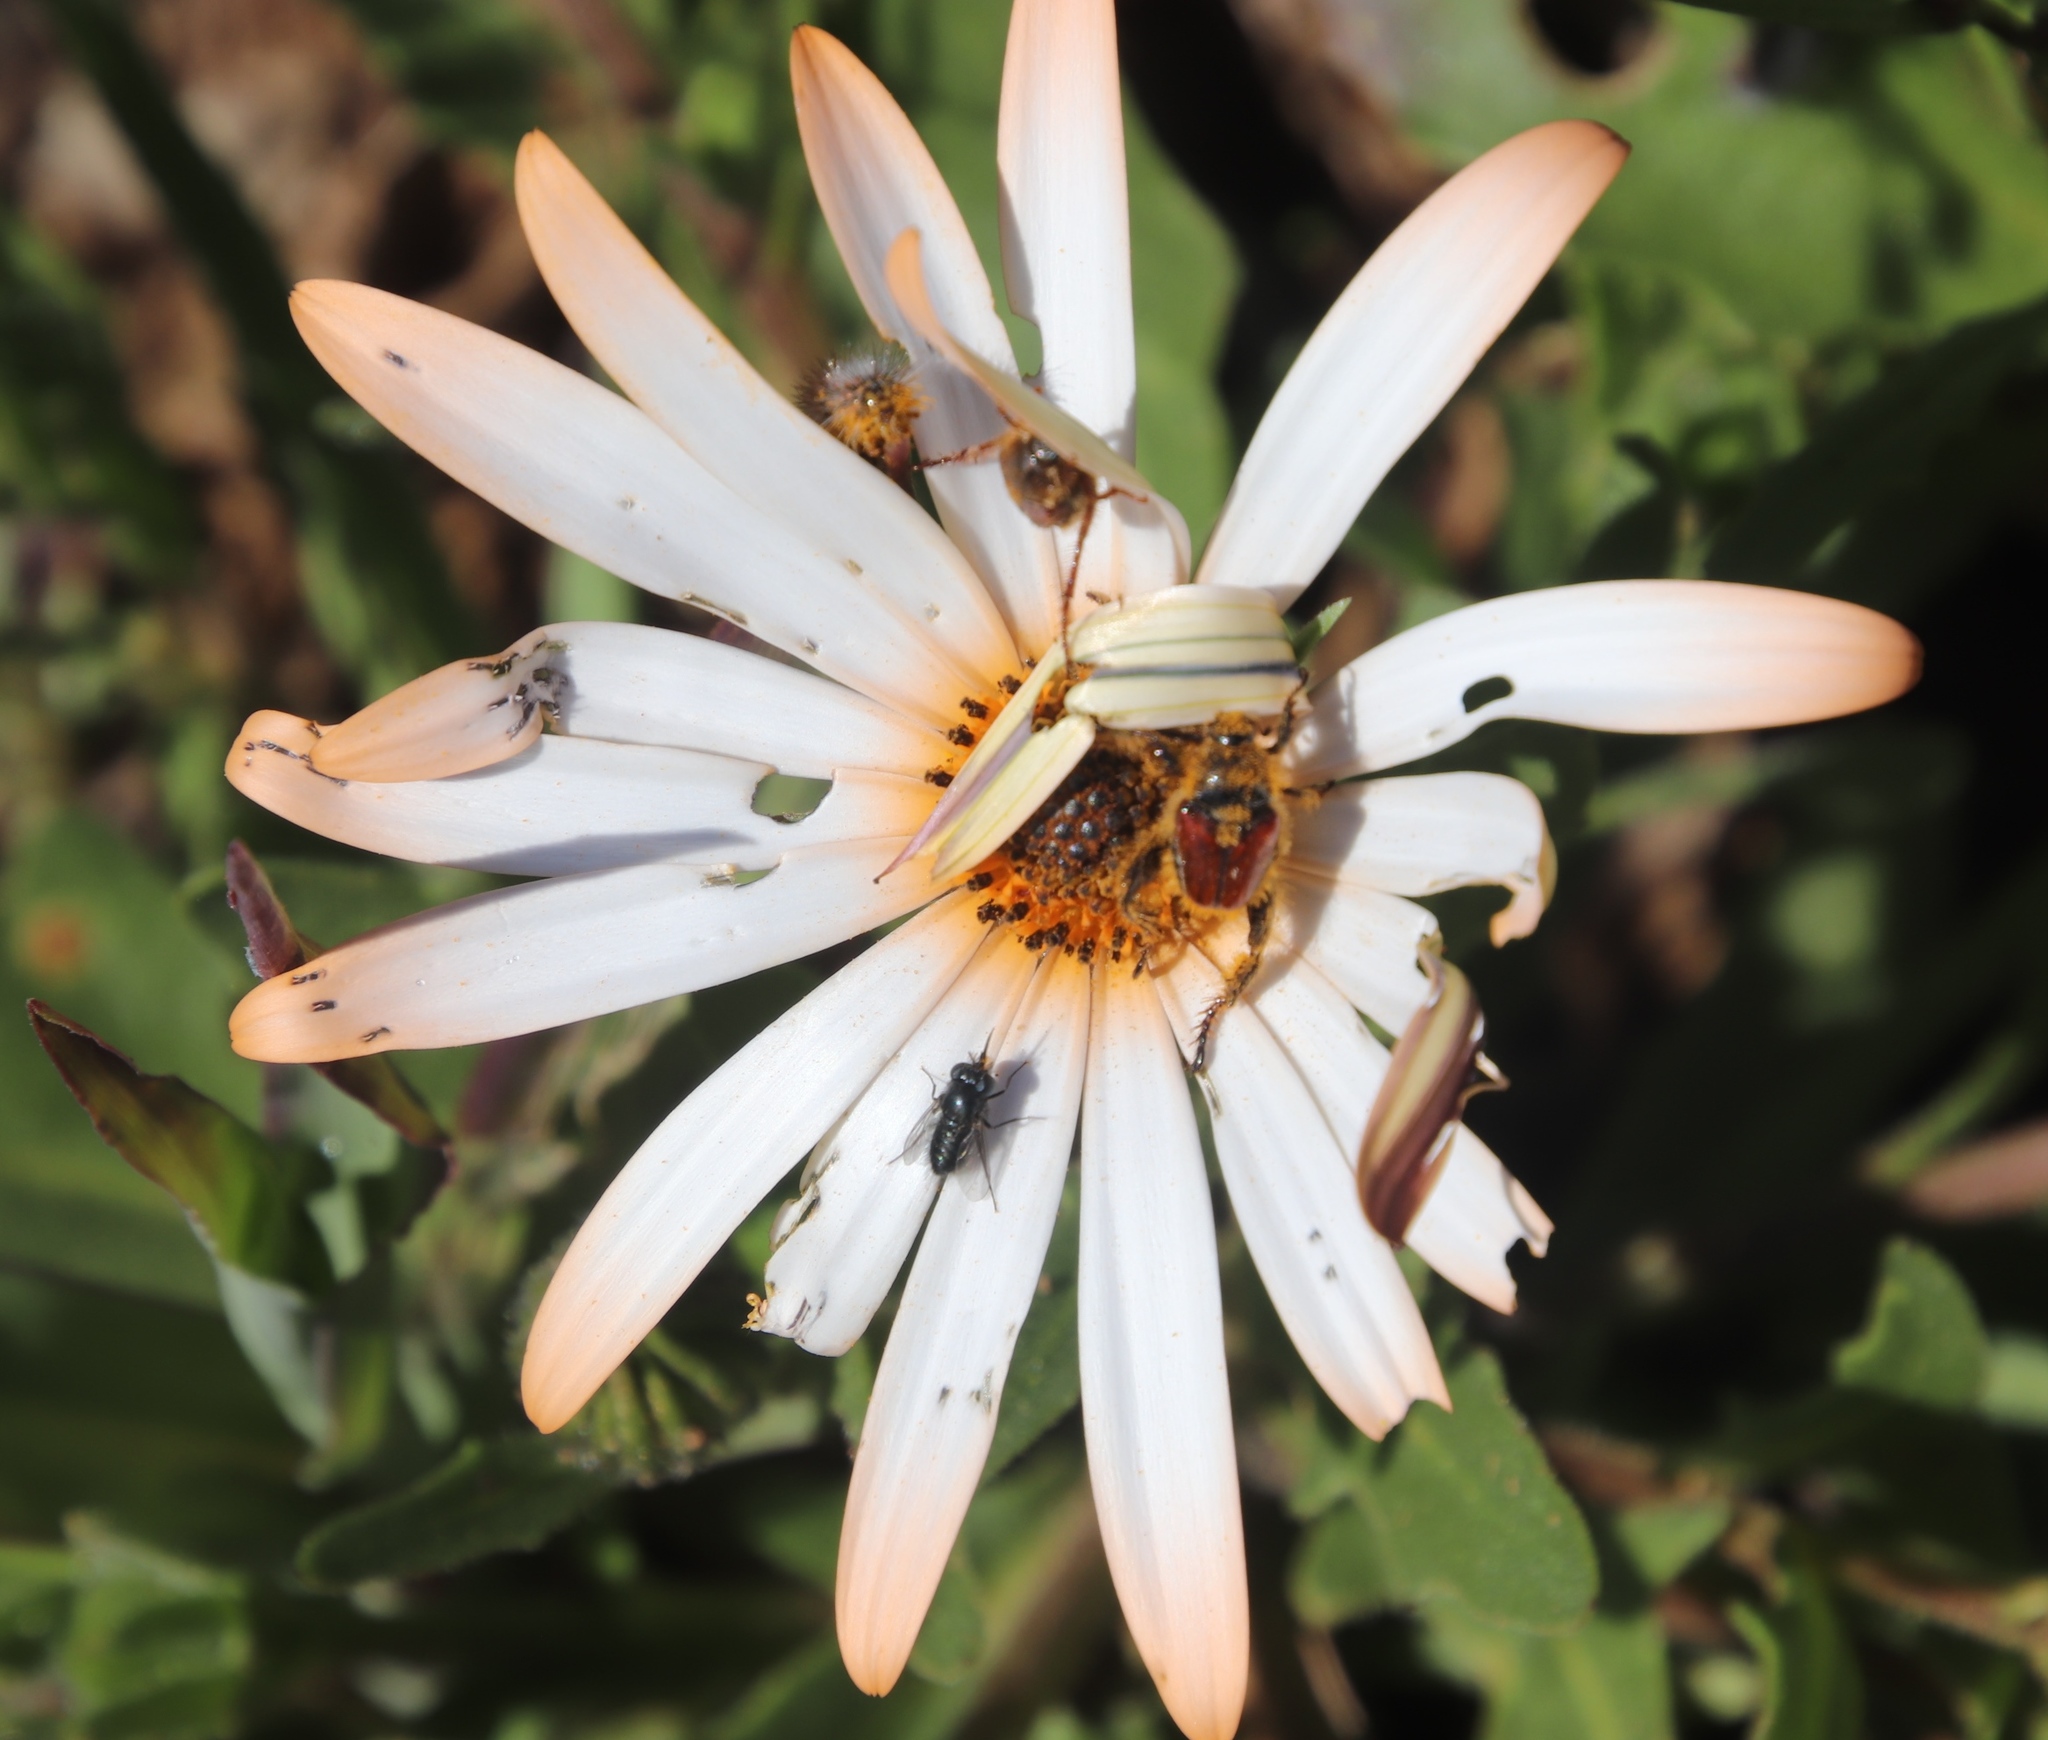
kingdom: Plantae
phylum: Tracheophyta
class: Magnoliopsida
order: Asterales
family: Asteraceae
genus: Dimorphotheca
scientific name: Dimorphotheca sinuata
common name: Glandular cape marigold
